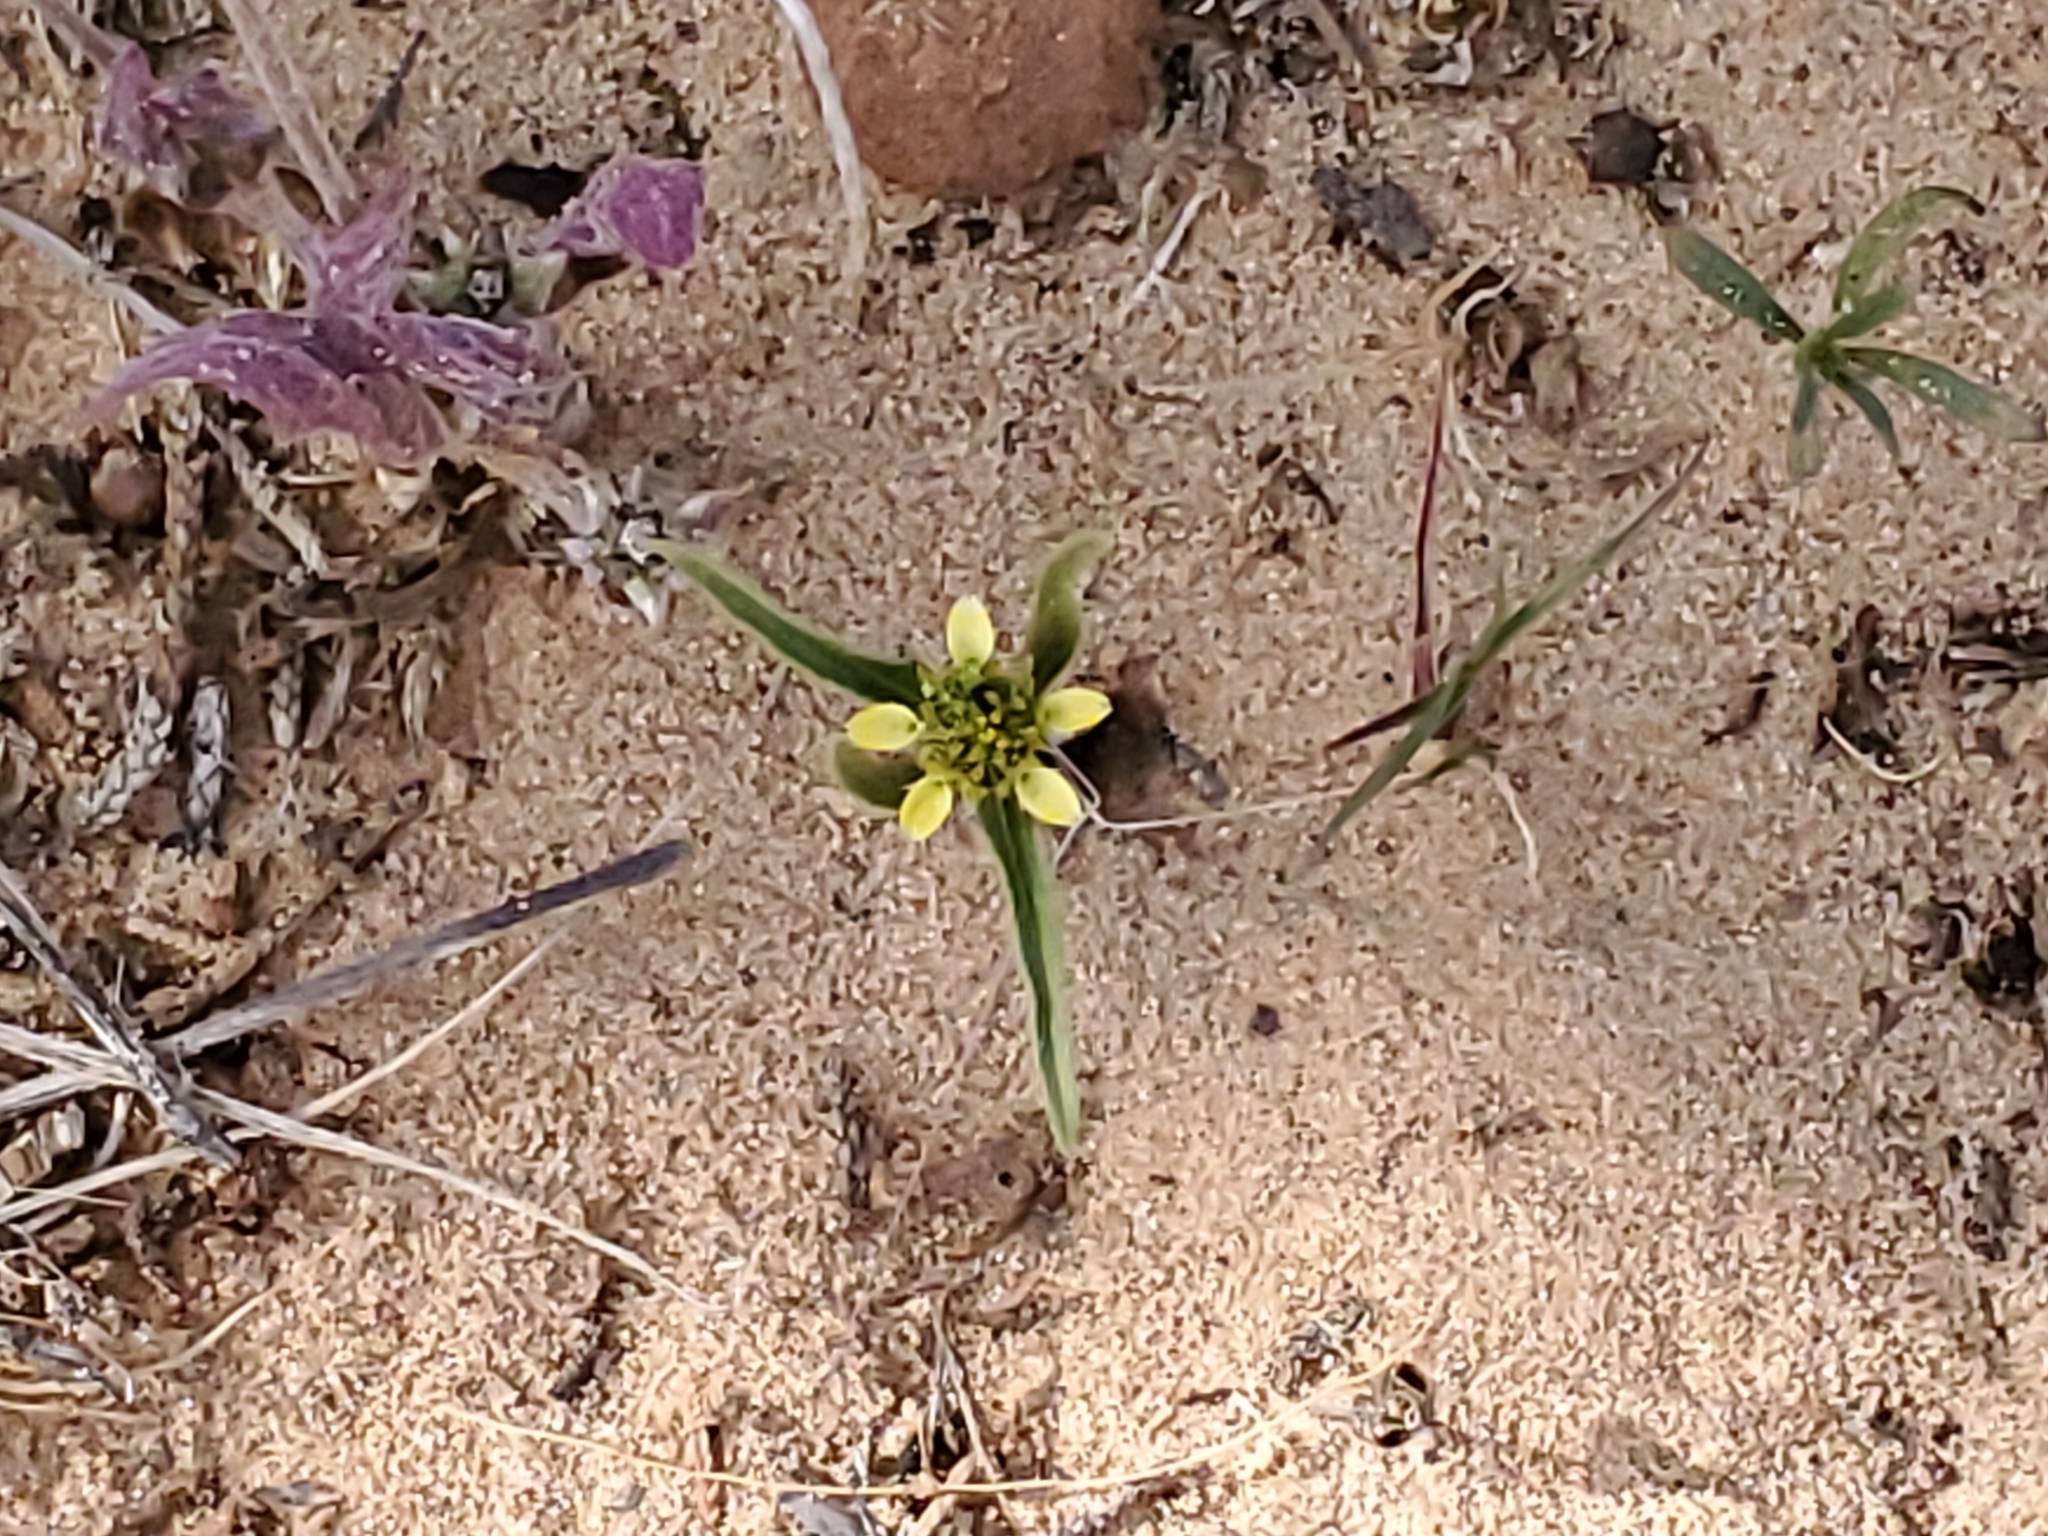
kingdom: Plantae
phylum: Tracheophyta
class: Magnoliopsida
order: Asterales
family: Asteraceae
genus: Sanvitalia
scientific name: Sanvitalia abertii
